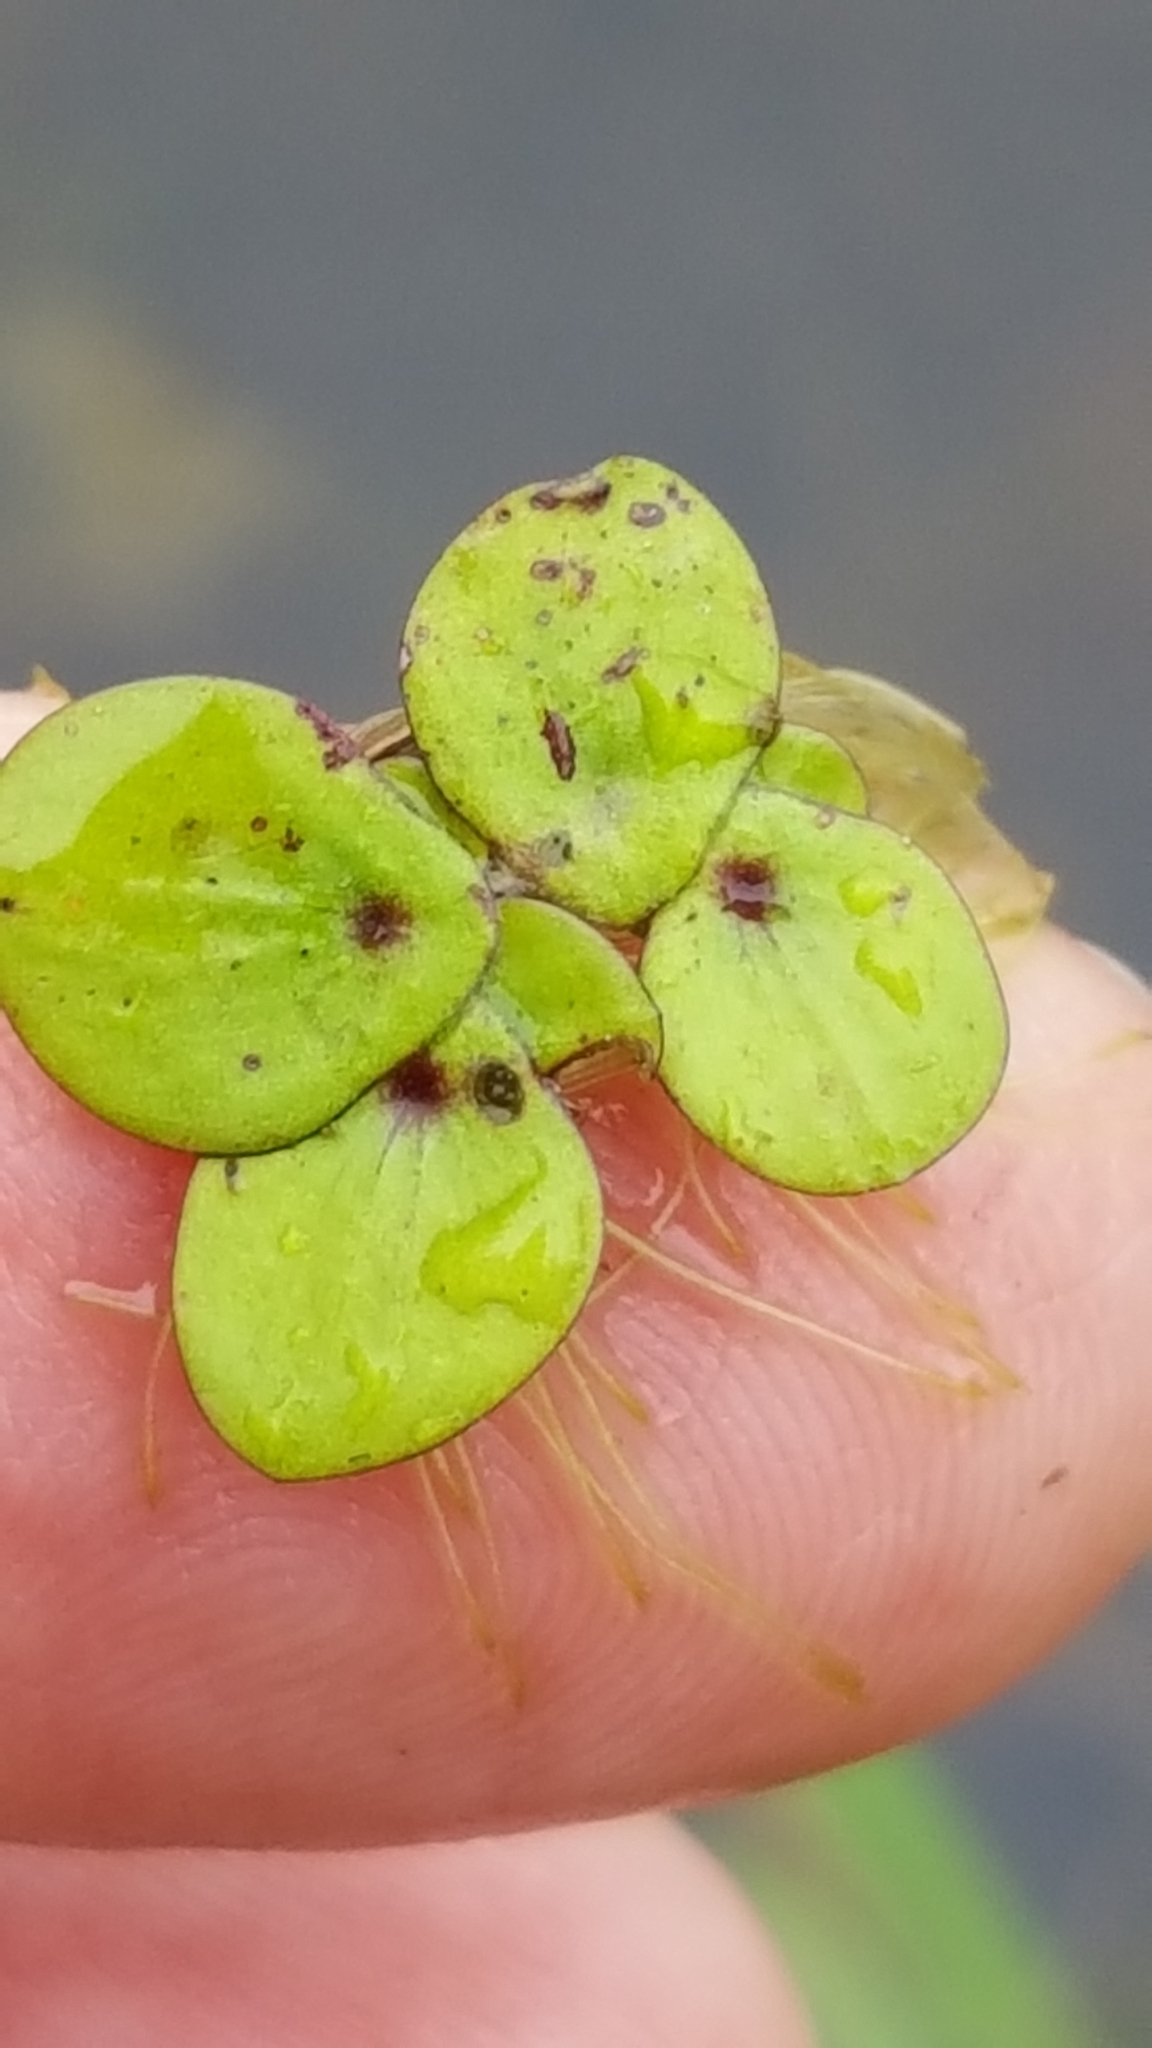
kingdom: Plantae
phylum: Tracheophyta
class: Liliopsida
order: Alismatales
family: Araceae
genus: Spirodela
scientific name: Spirodela polyrhiza
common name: Great duckweed
